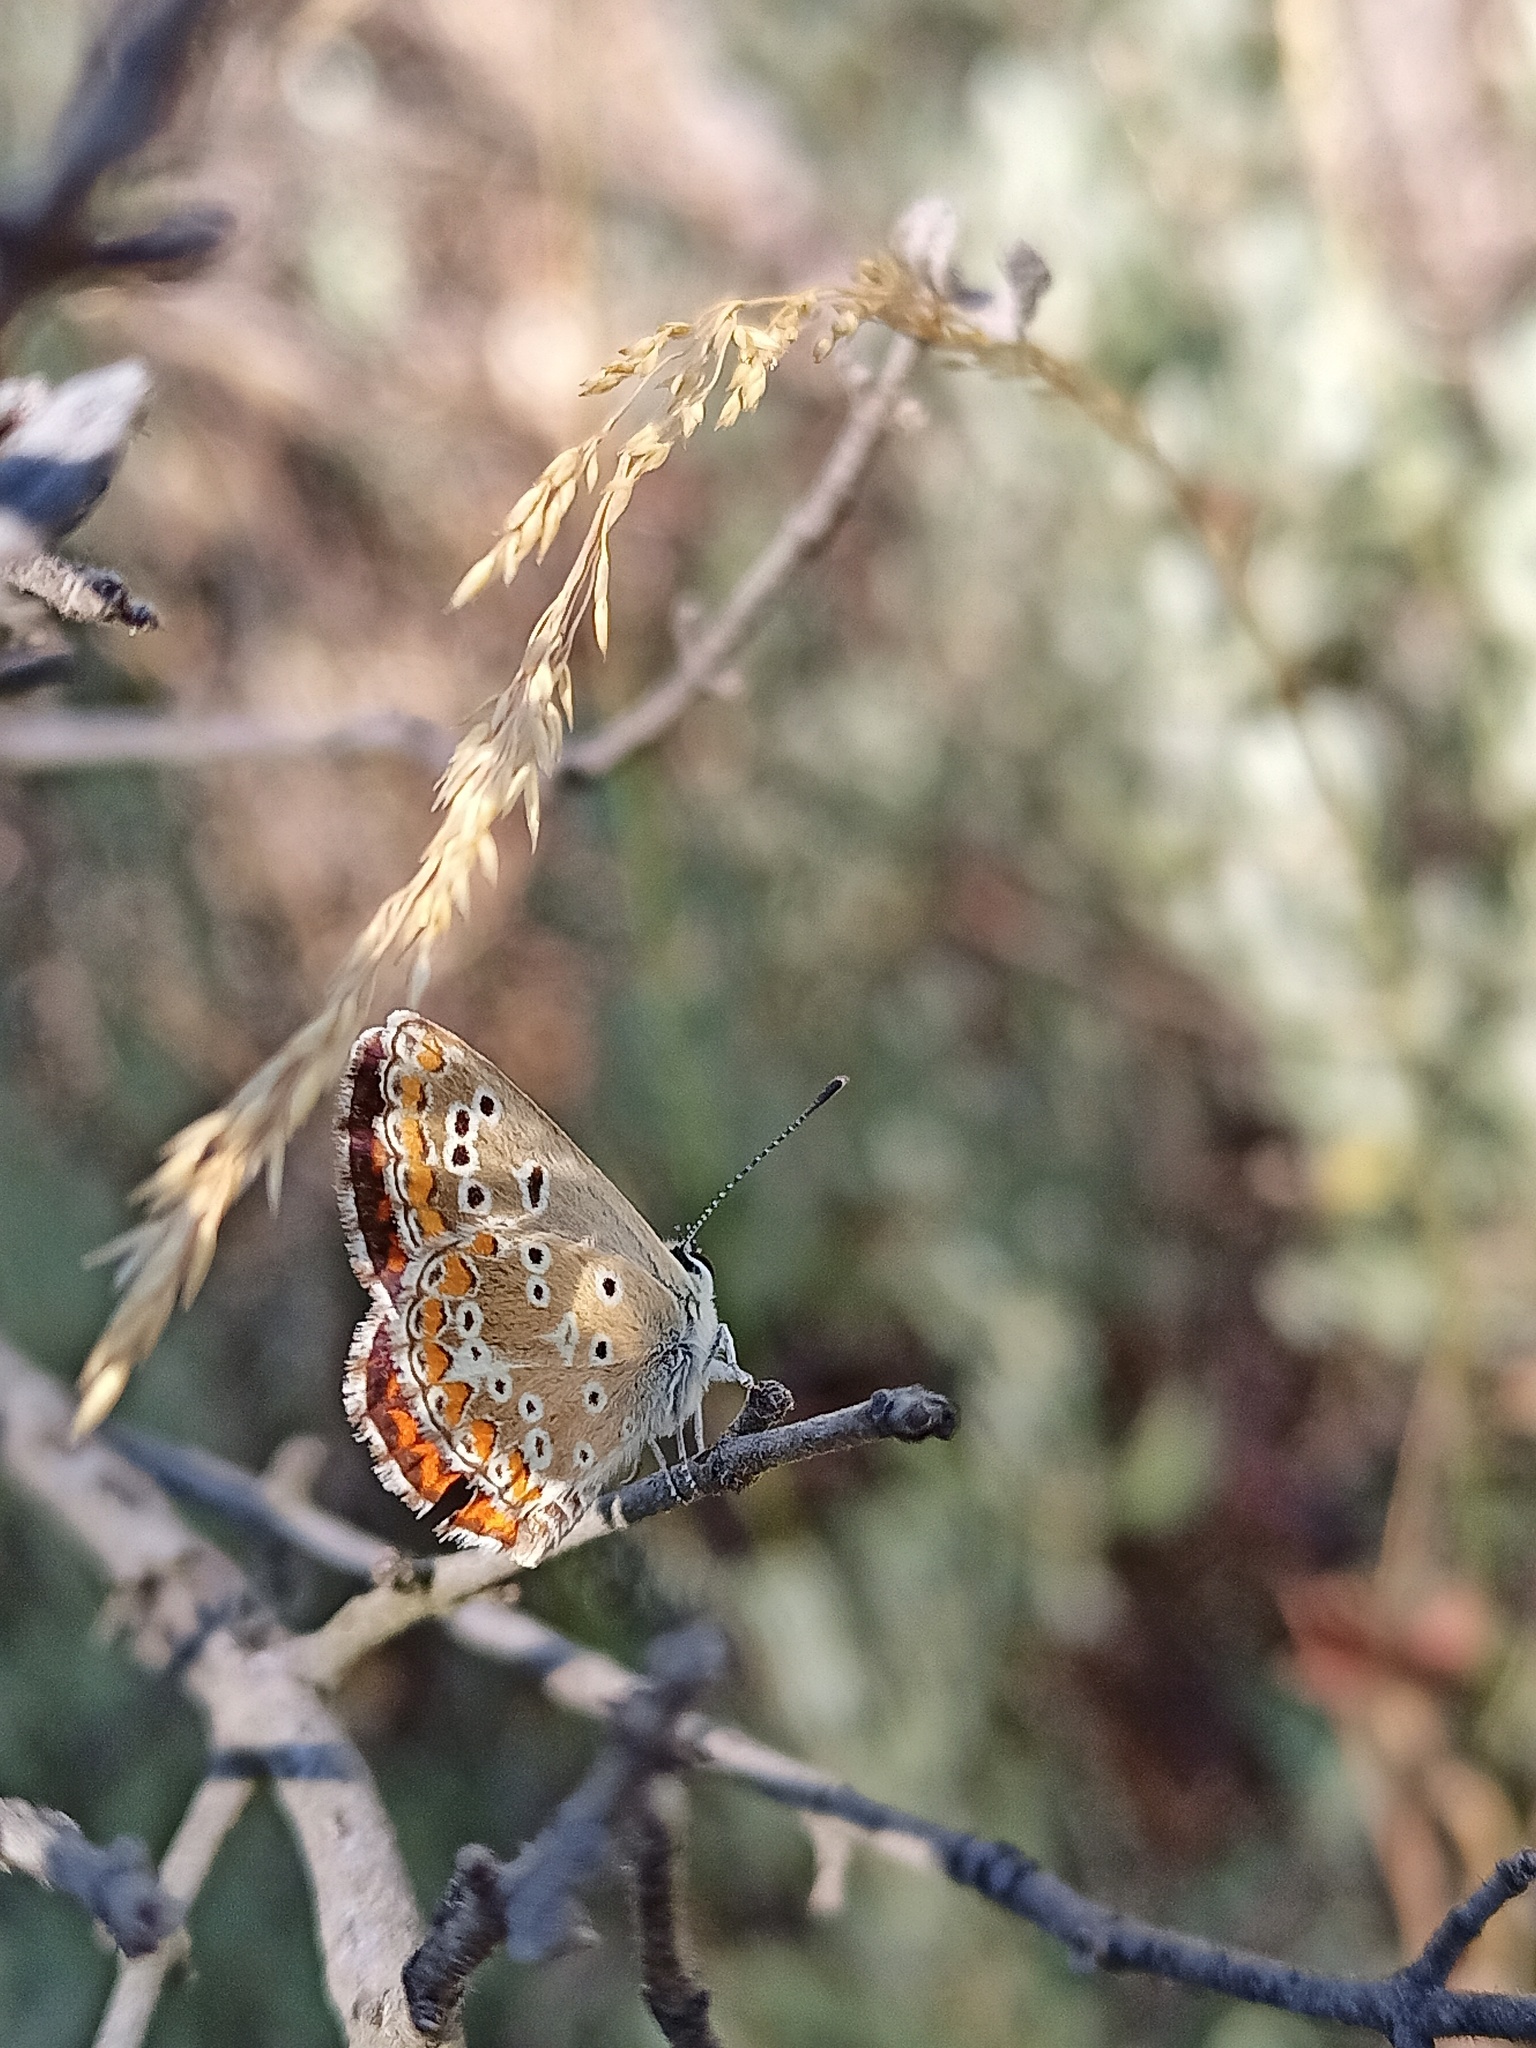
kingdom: Animalia
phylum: Arthropoda
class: Insecta
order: Lepidoptera
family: Lycaenidae
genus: Aricia
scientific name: Aricia cramera
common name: Eschscholtz´s brown  argus
